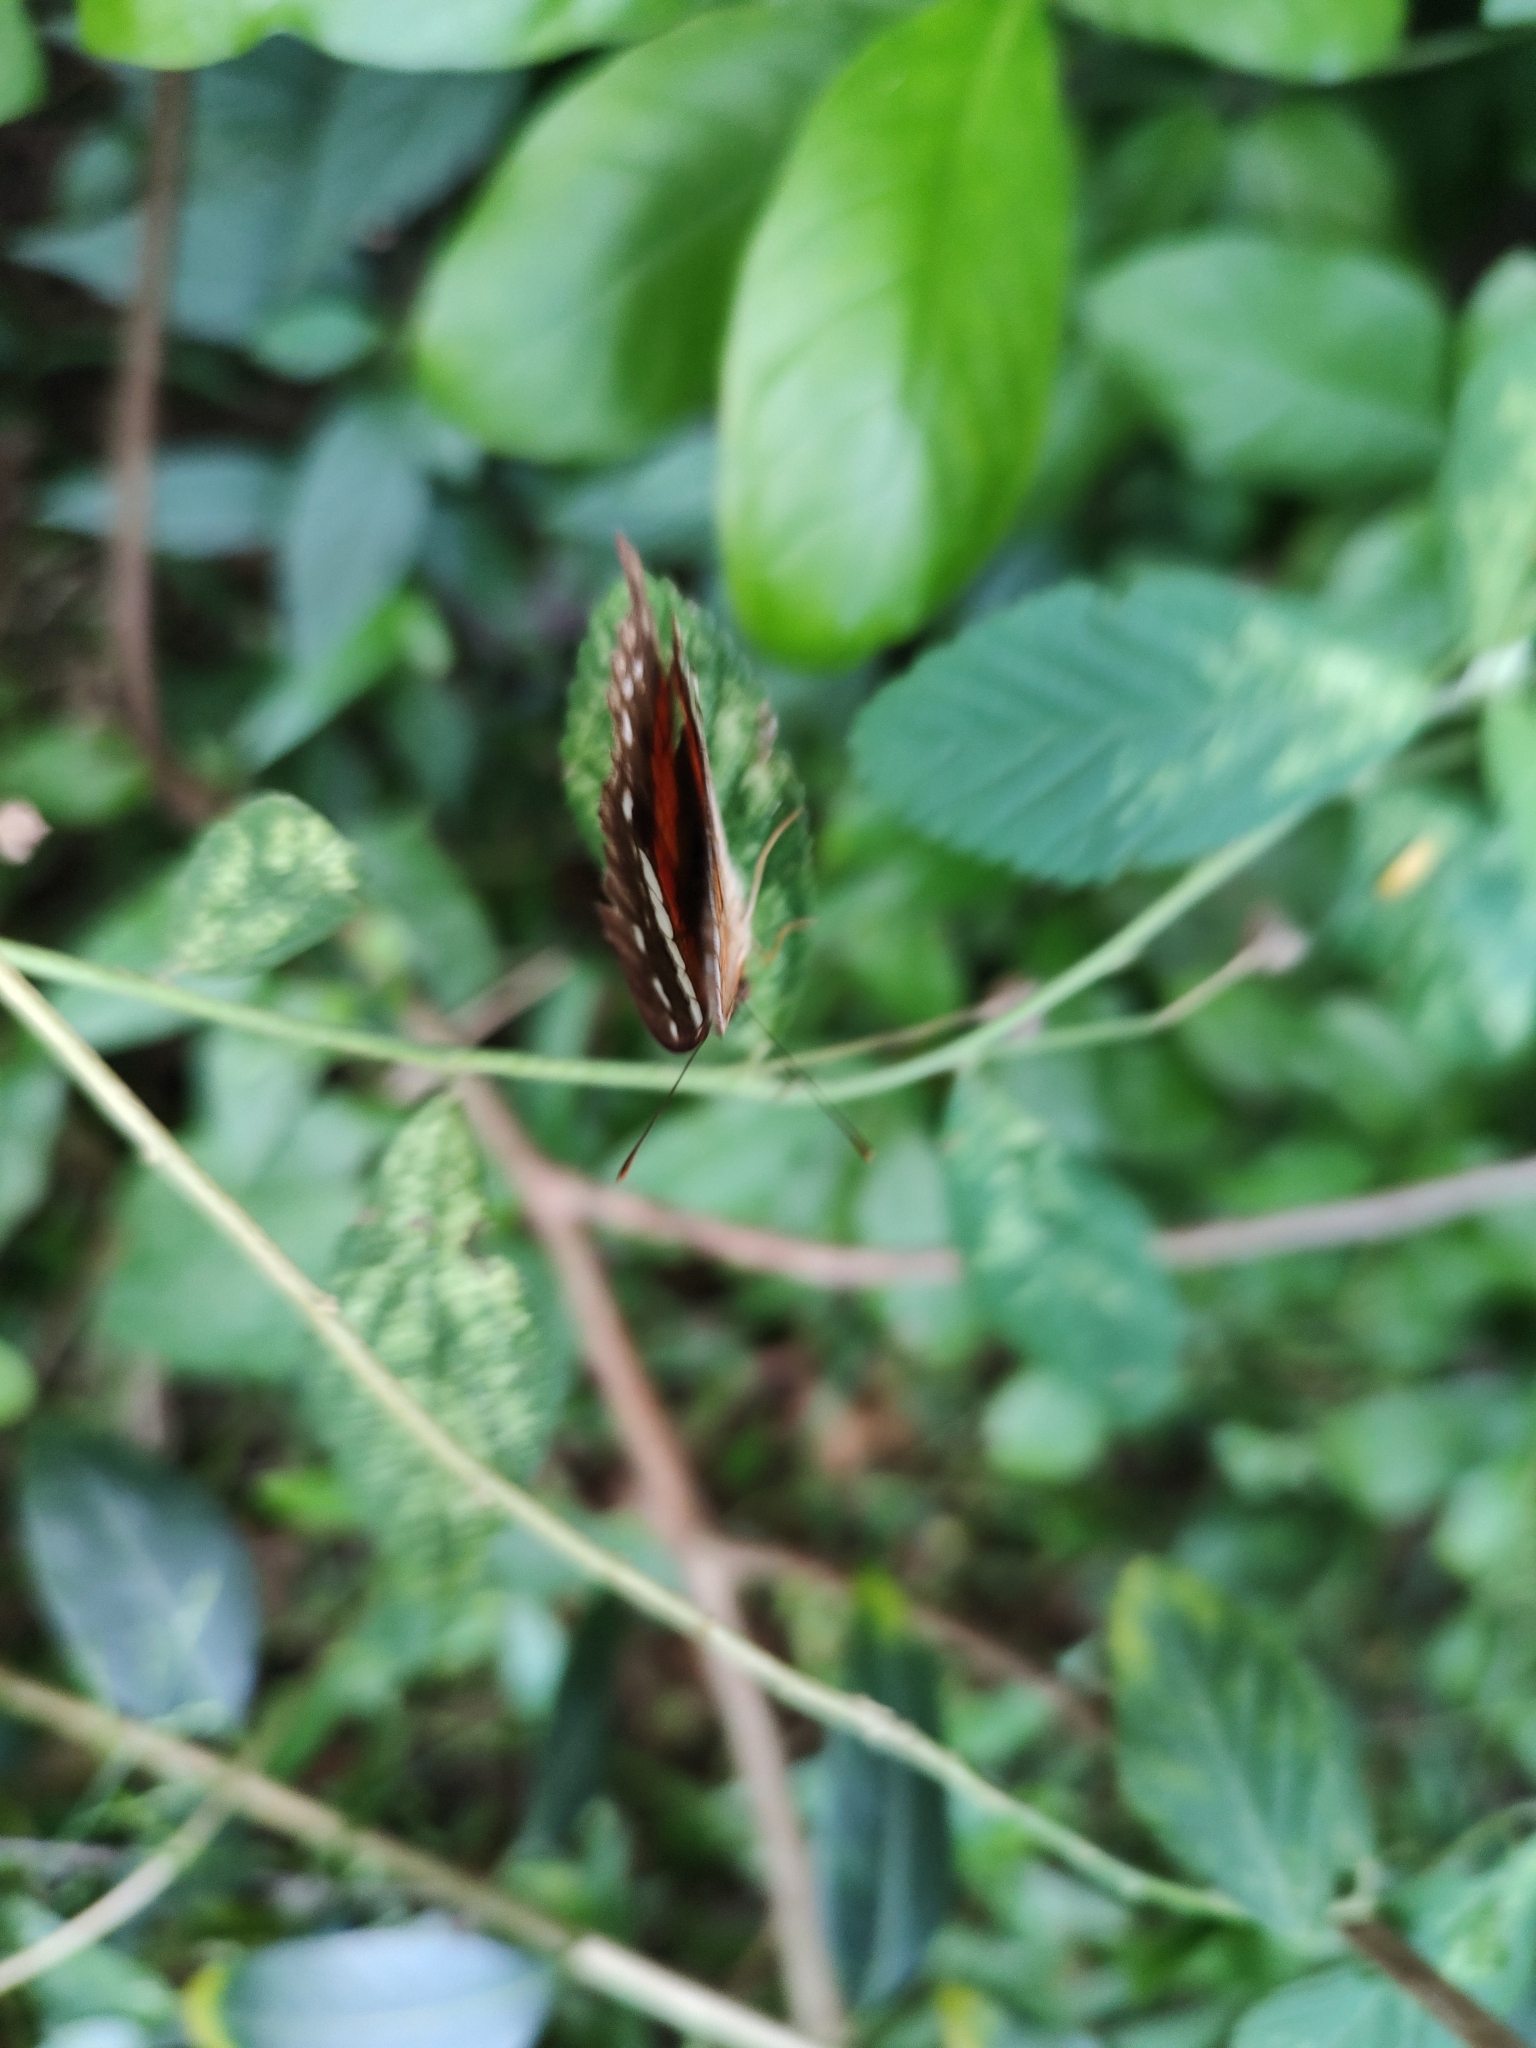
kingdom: Animalia
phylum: Arthropoda
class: Insecta
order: Lepidoptera
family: Nymphalidae
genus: Anartia
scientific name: Anartia amathea
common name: Red peacock
